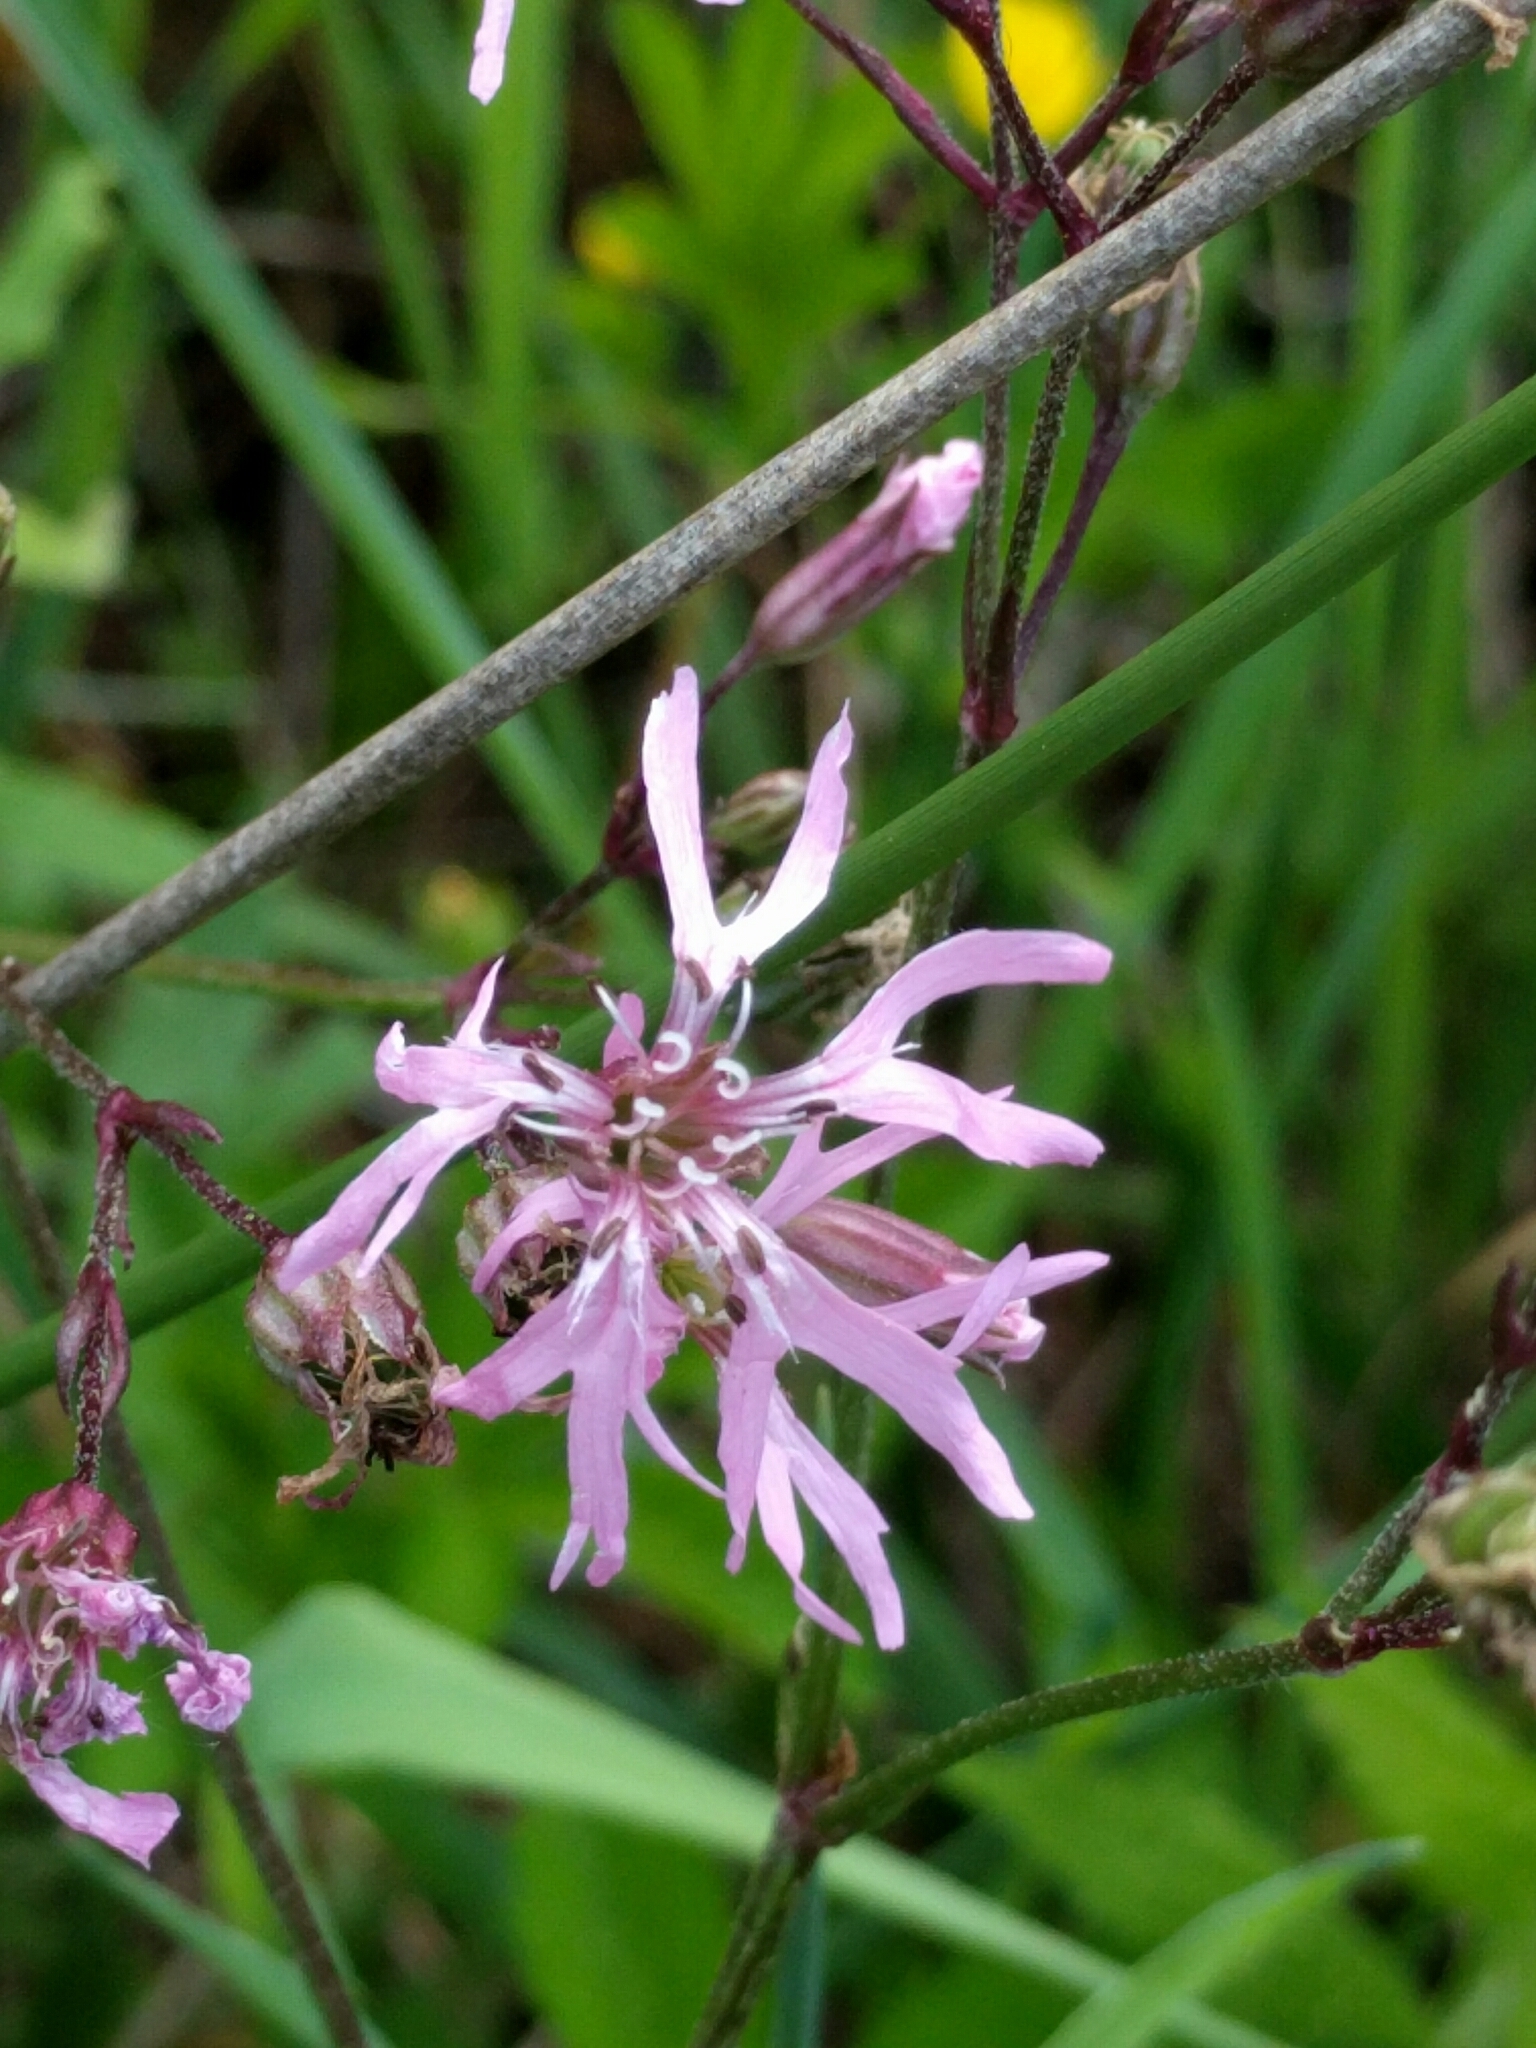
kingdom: Plantae
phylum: Tracheophyta
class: Magnoliopsida
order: Caryophyllales
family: Caryophyllaceae
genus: Silene
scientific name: Silene flos-cuculi
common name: Ragged-robin
